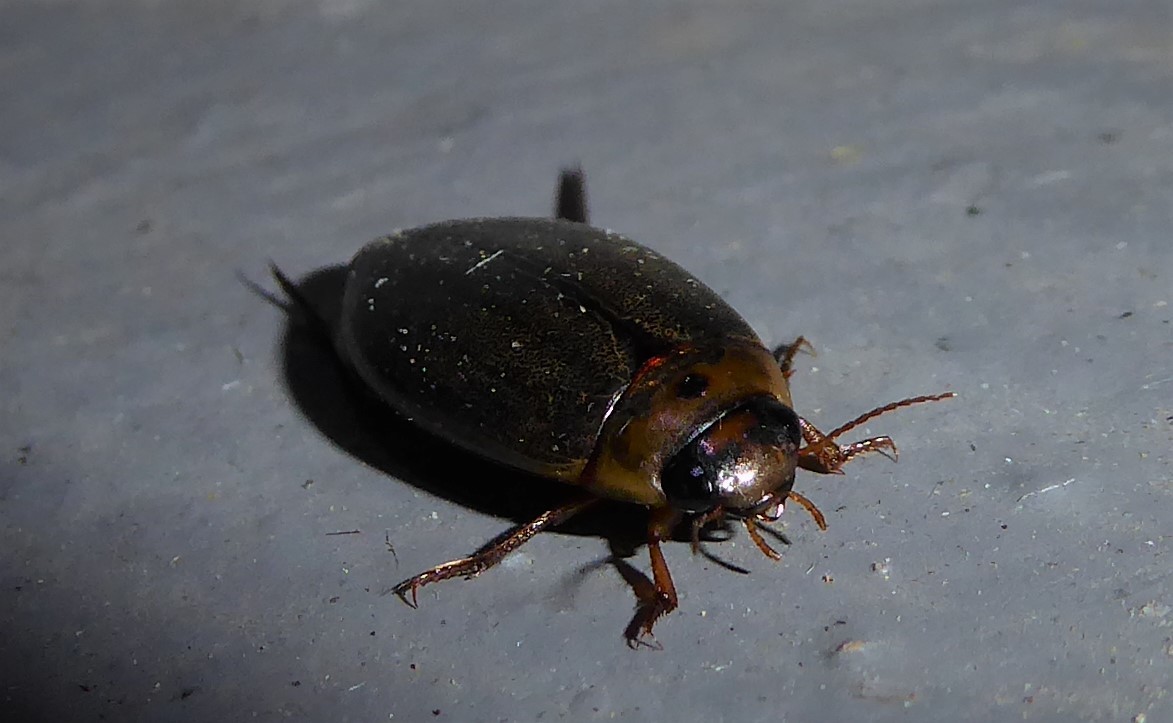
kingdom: Animalia
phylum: Arthropoda
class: Insecta
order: Coleoptera
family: Dytiscidae
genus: Rhantus
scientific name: Rhantus suturalis
